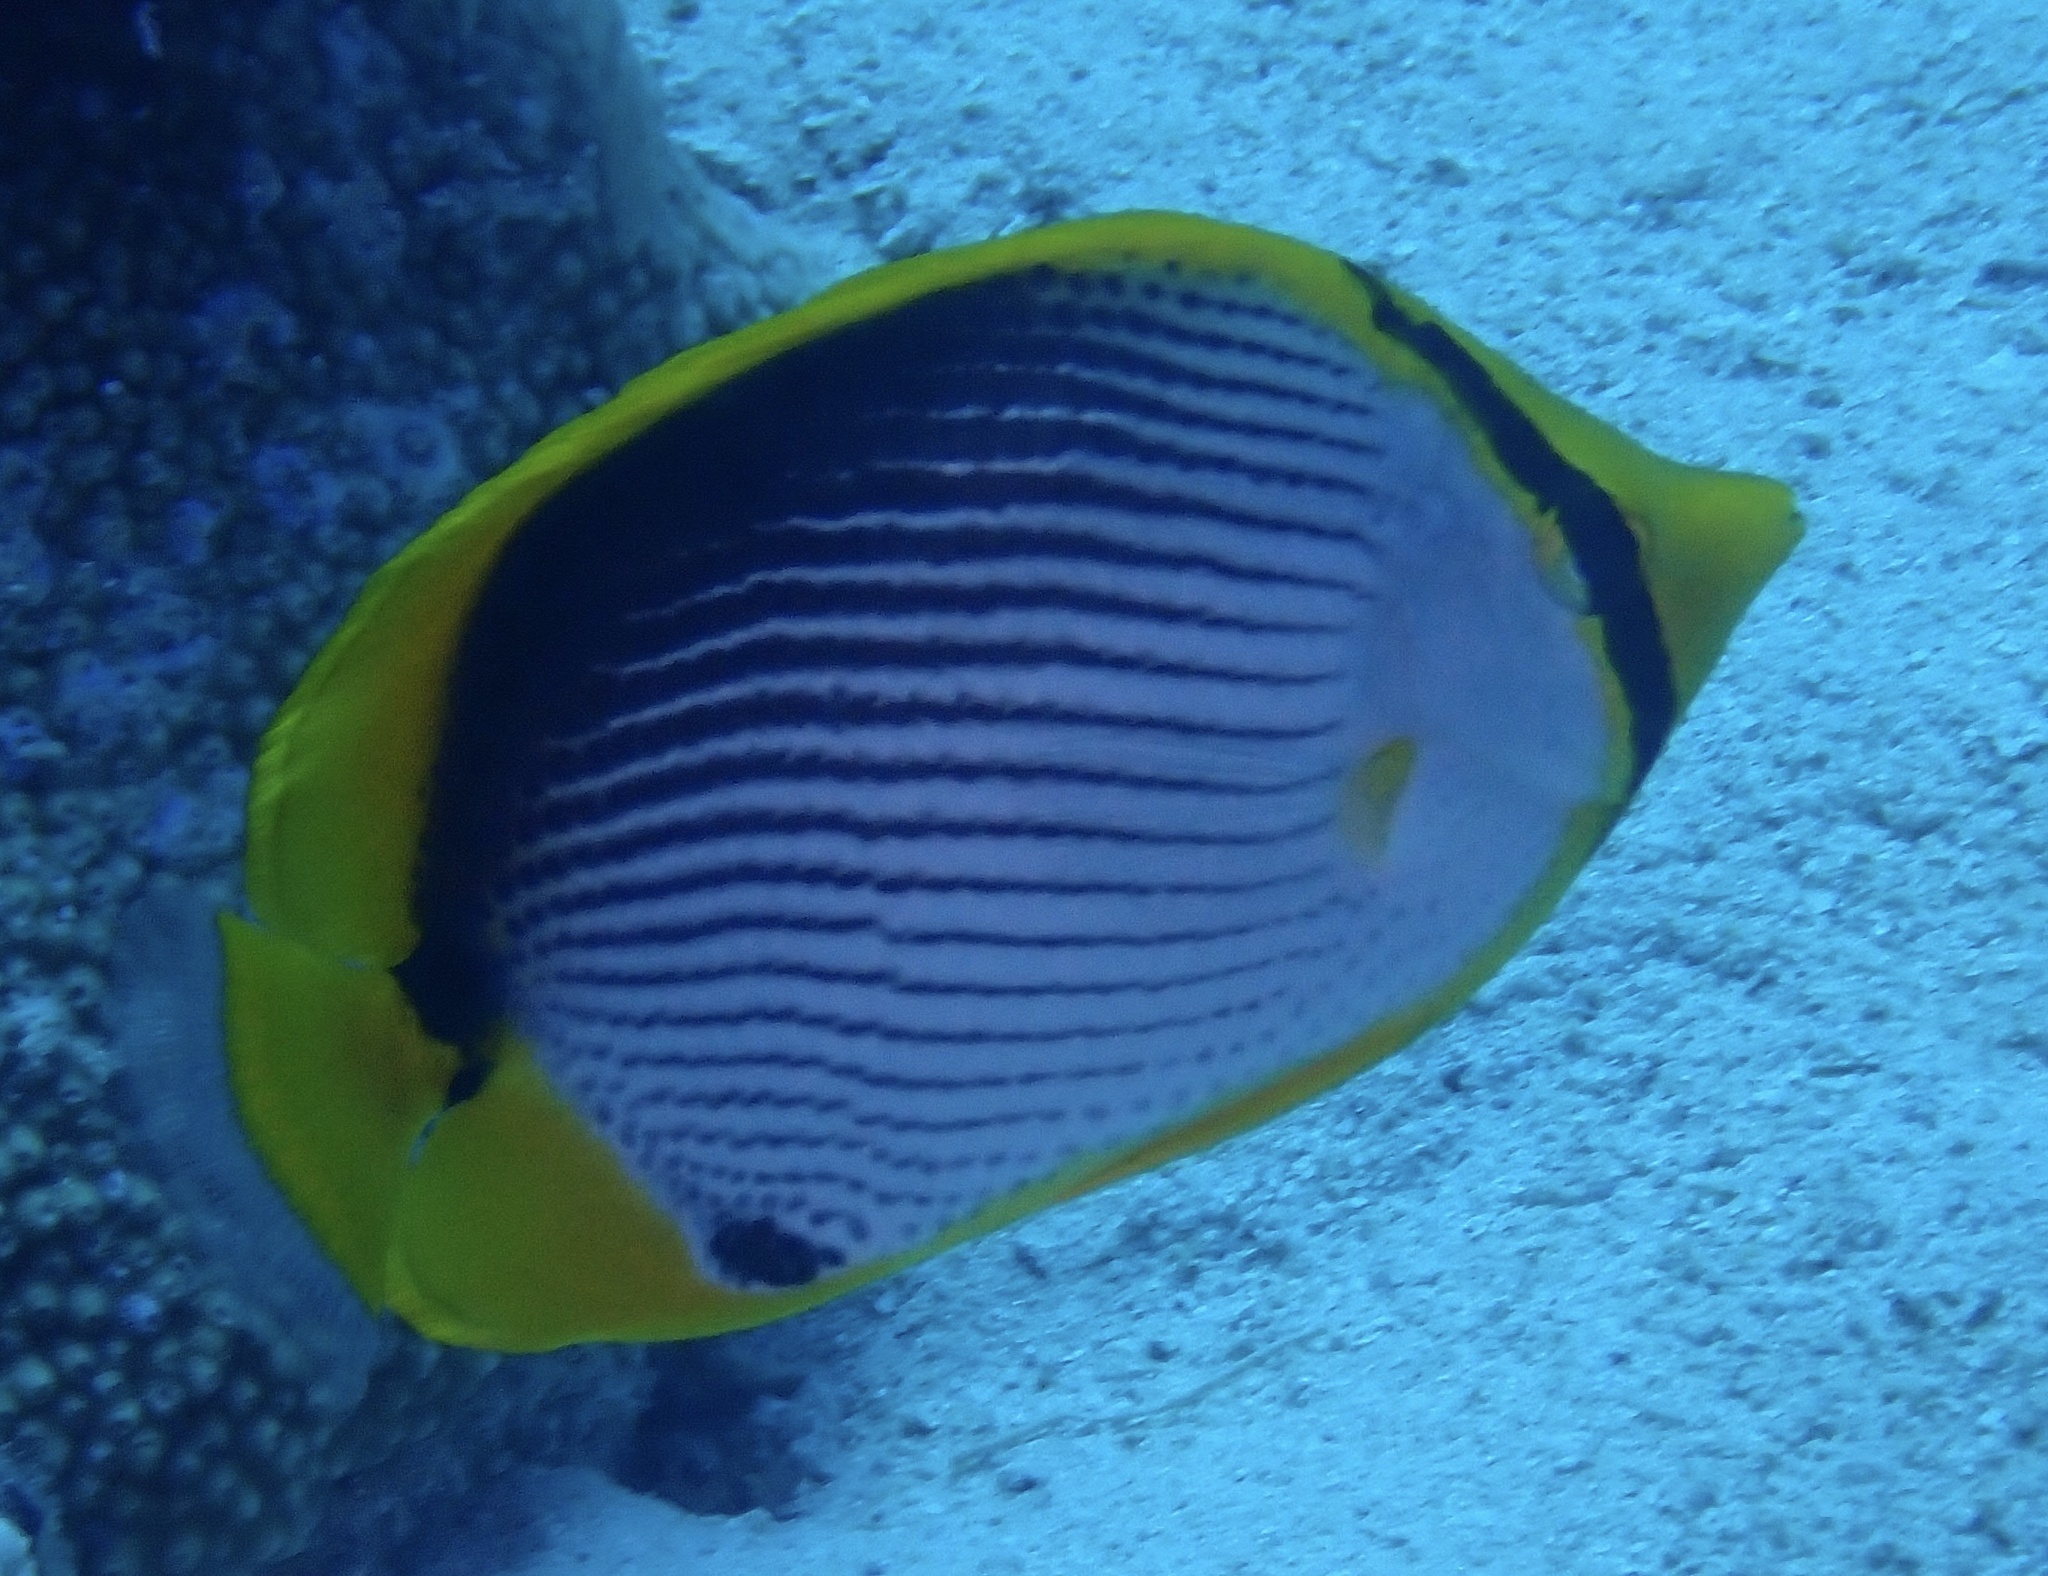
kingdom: Animalia
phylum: Chordata
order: Perciformes
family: Chaetodontidae
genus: Chaetodon
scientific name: Chaetodon melannotus
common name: Blackback butterflyfish
